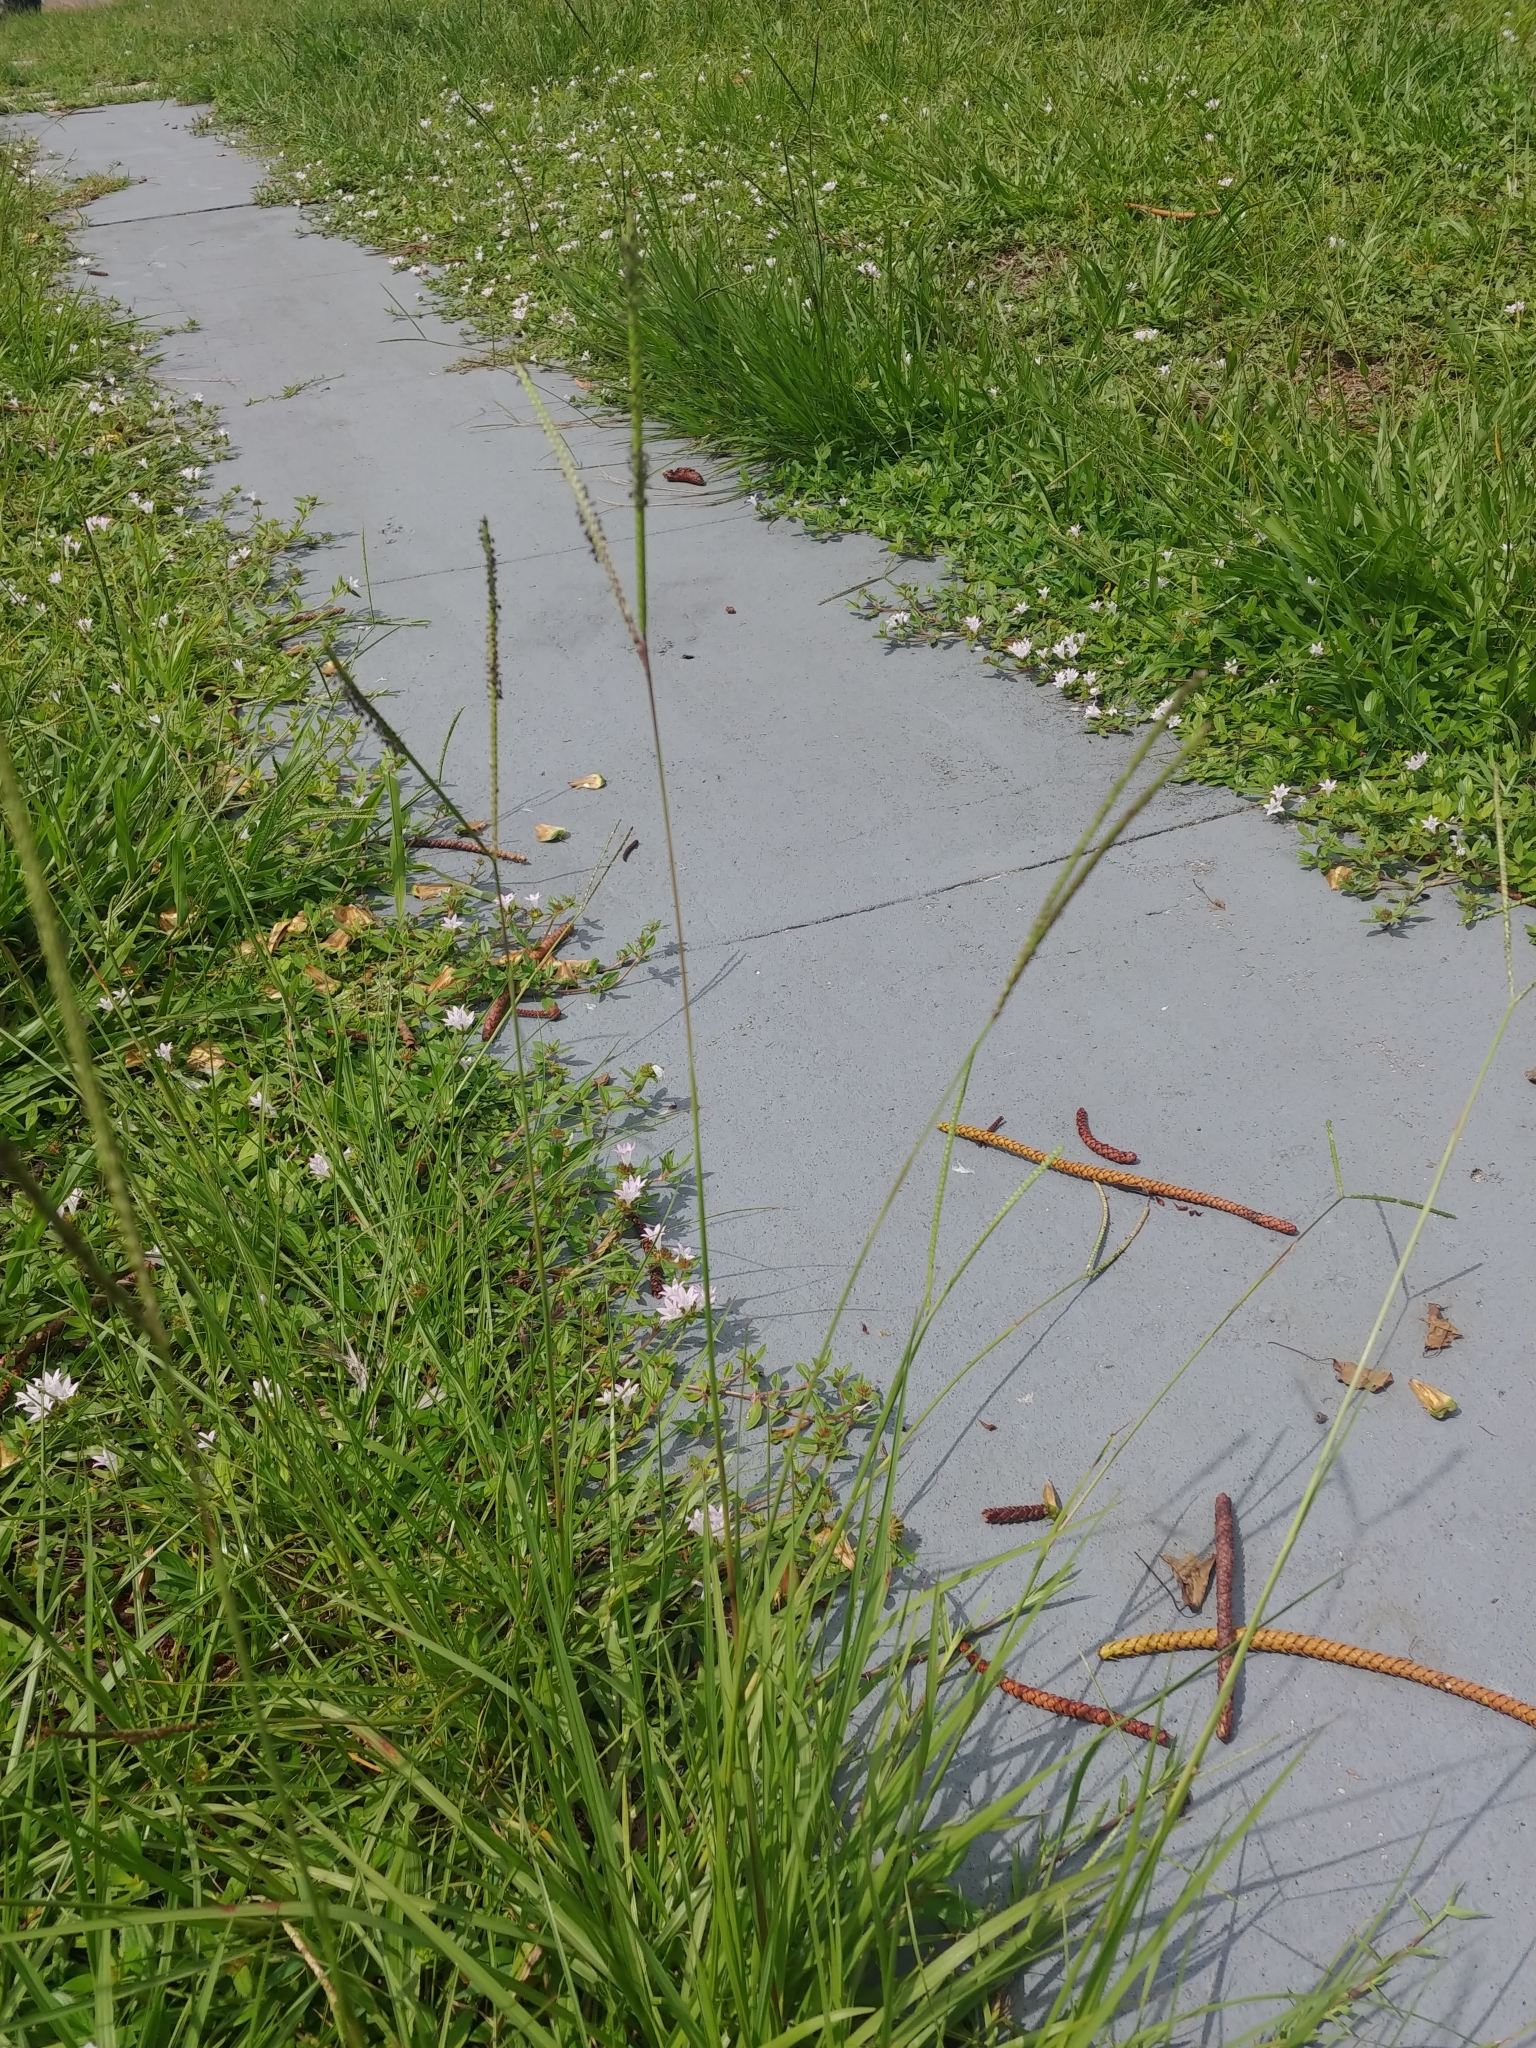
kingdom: Plantae
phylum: Tracheophyta
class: Liliopsida
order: Poales
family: Poaceae
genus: Paspalum
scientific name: Paspalum notatum
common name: Bahiagrass
